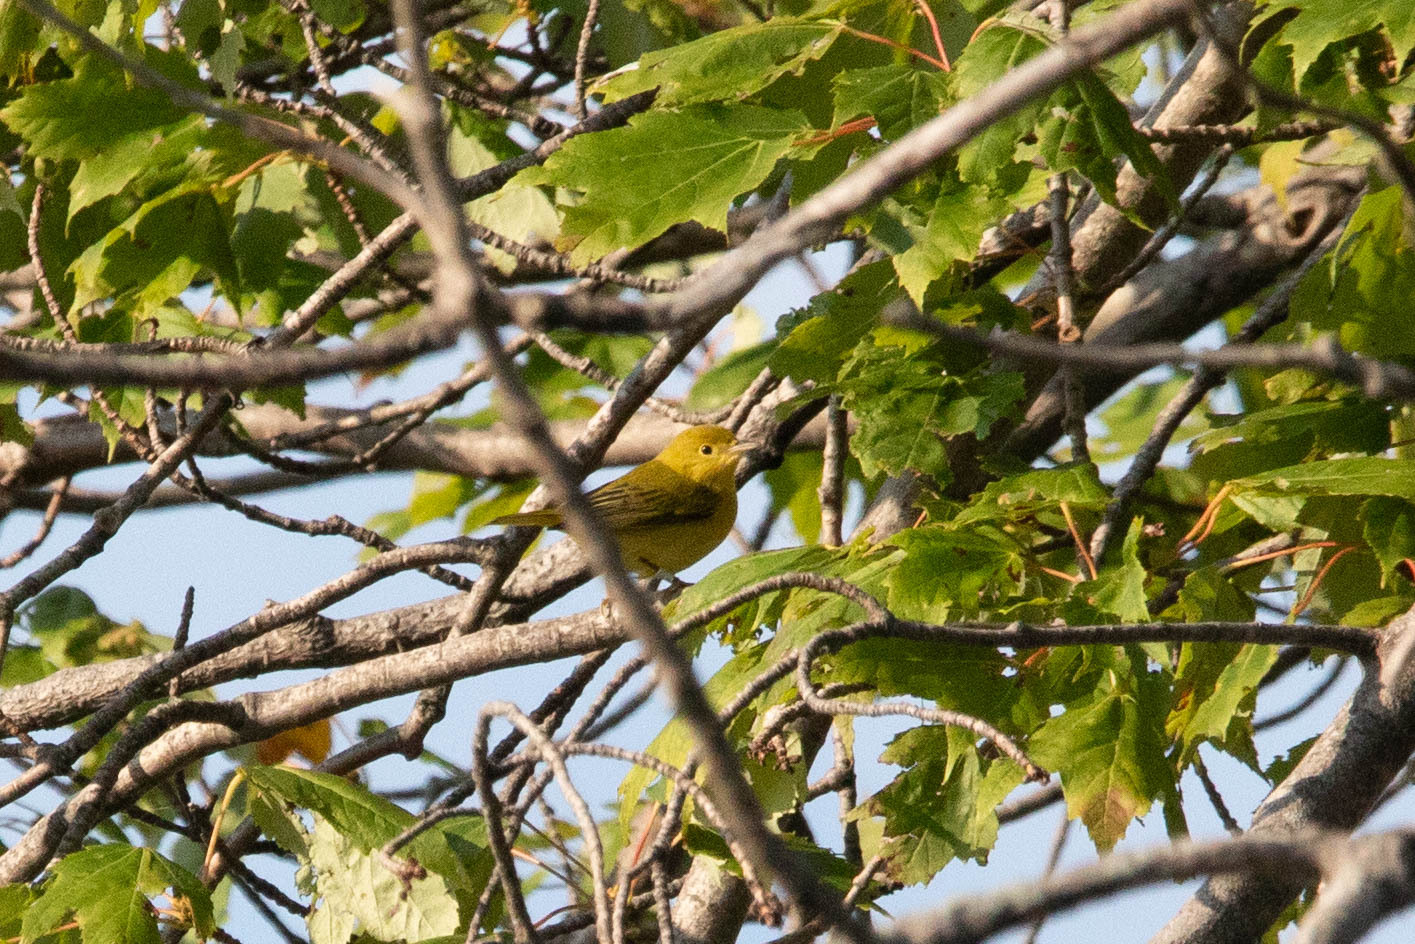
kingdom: Animalia
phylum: Chordata
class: Aves
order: Passeriformes
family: Parulidae
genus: Setophaga
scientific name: Setophaga petechia
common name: Yellow warbler
